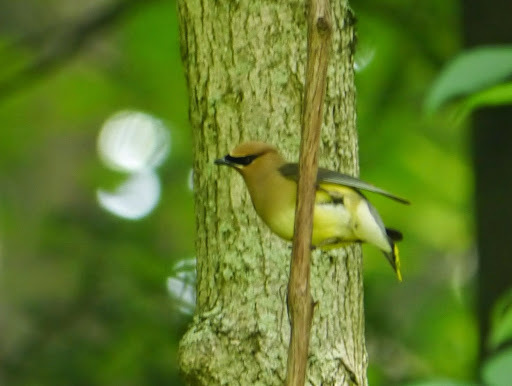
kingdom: Animalia
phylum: Chordata
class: Aves
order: Passeriformes
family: Bombycillidae
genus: Bombycilla
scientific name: Bombycilla cedrorum
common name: Cedar waxwing
